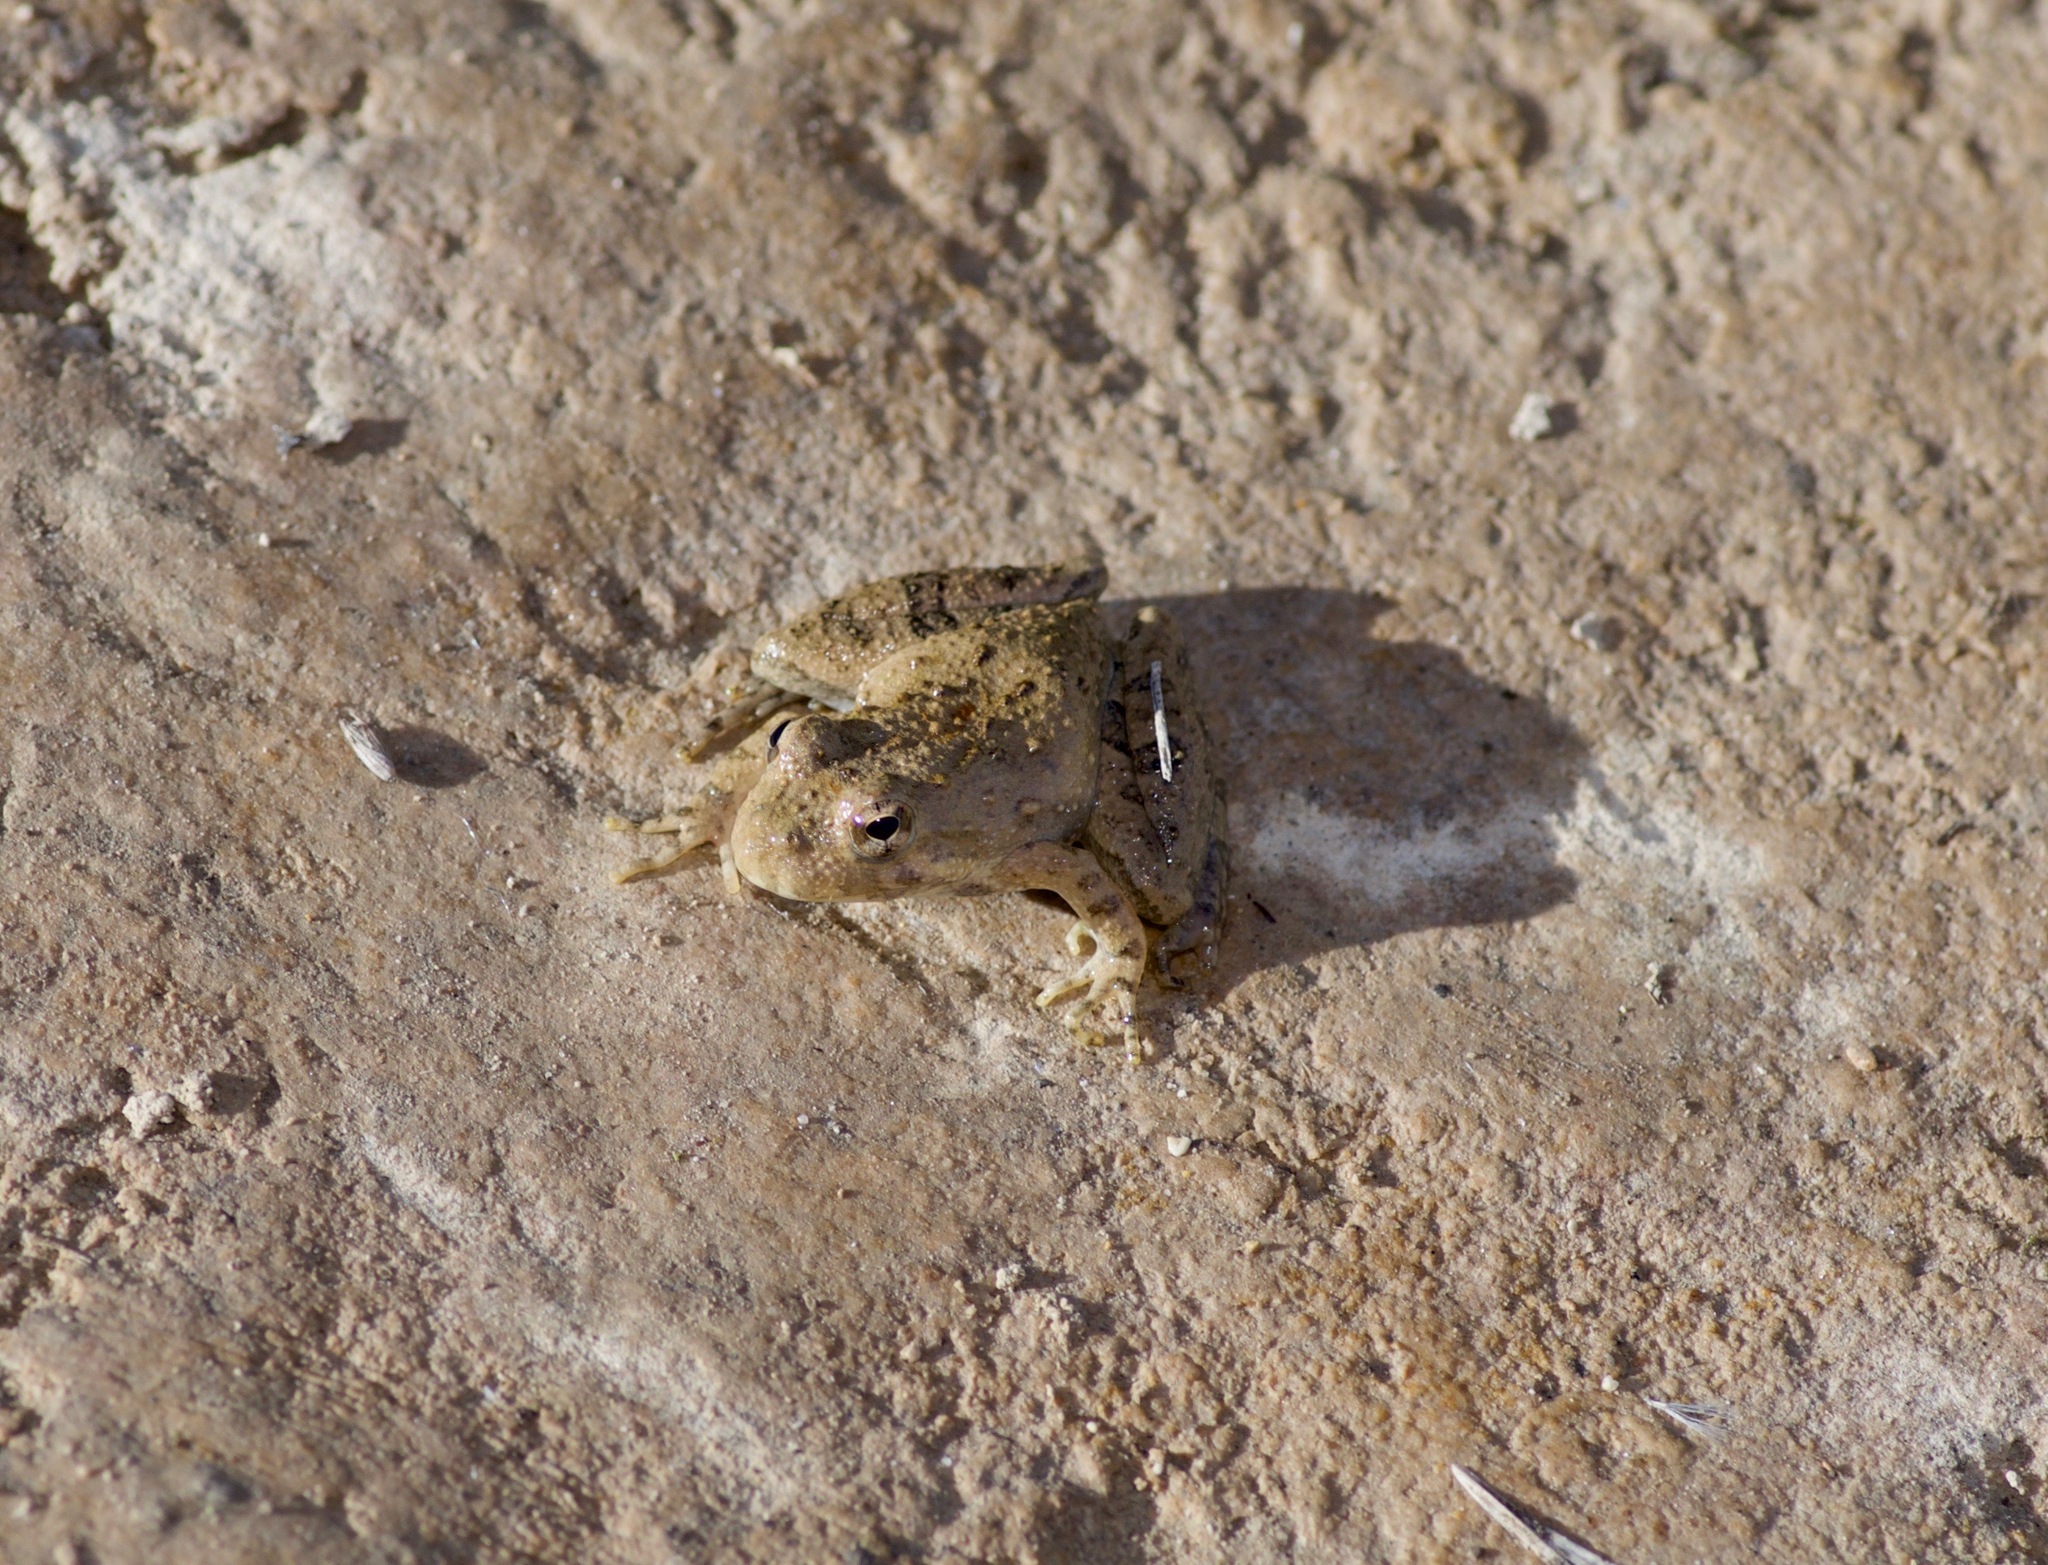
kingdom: Animalia
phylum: Chordata
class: Amphibia
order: Anura
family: Hylidae
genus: Acris
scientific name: Acris blanchardi
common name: Blanchard's cricket frog
